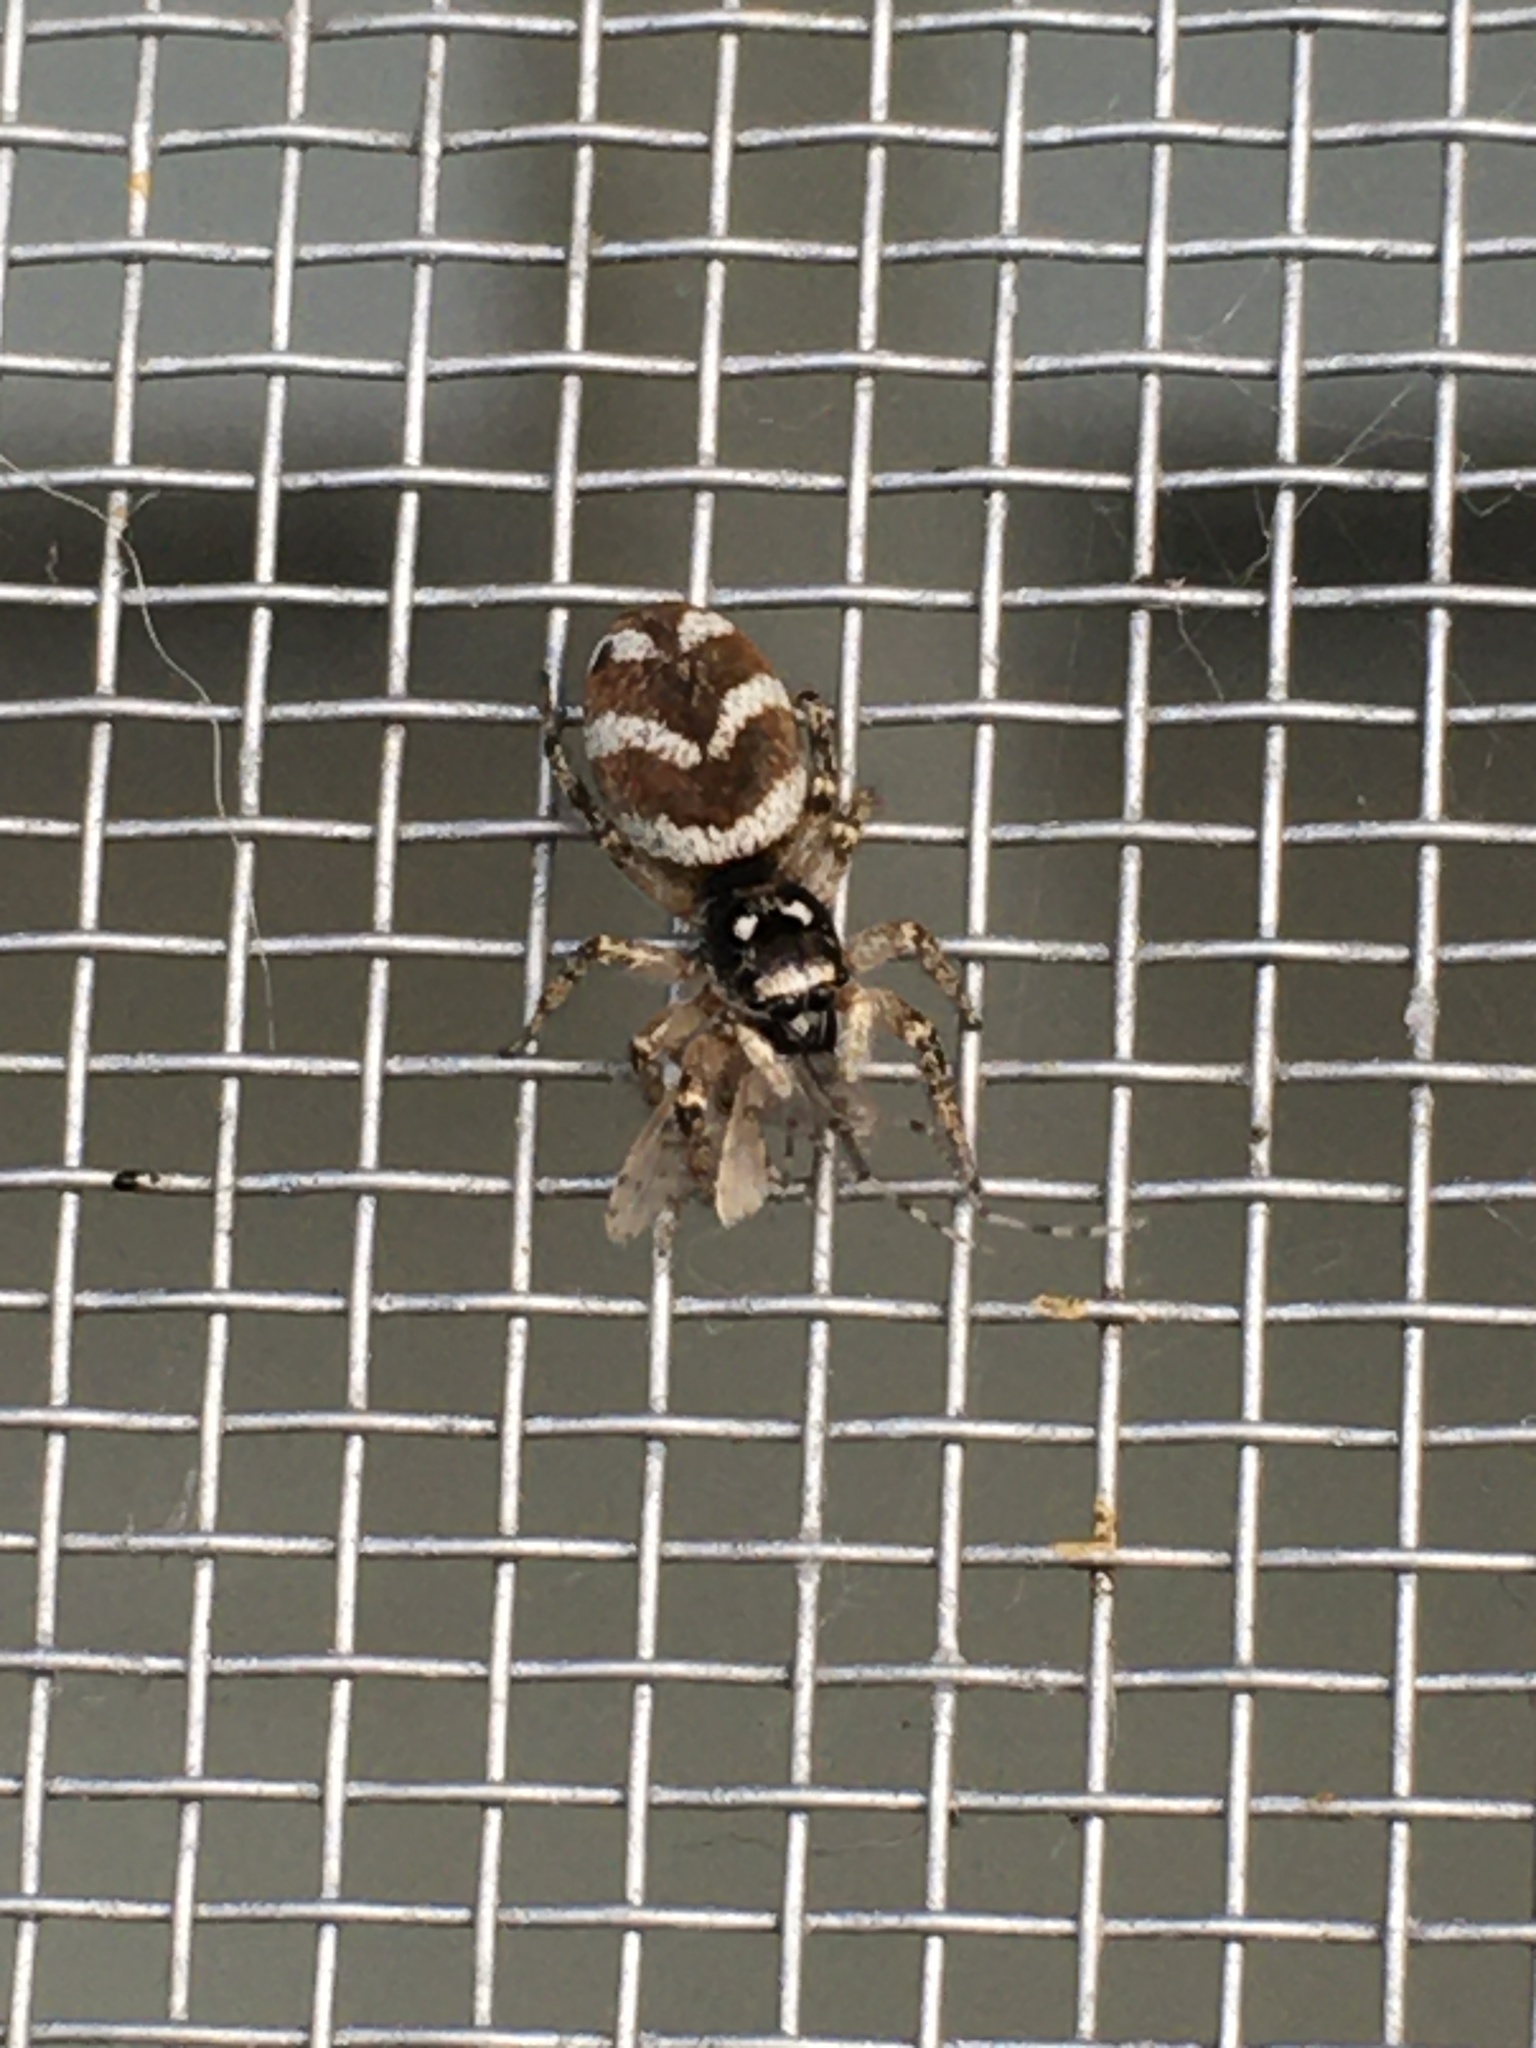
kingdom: Animalia
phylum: Arthropoda
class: Arachnida
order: Araneae
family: Salticidae
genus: Salticus
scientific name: Salticus scenicus
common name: Zebra jumper
